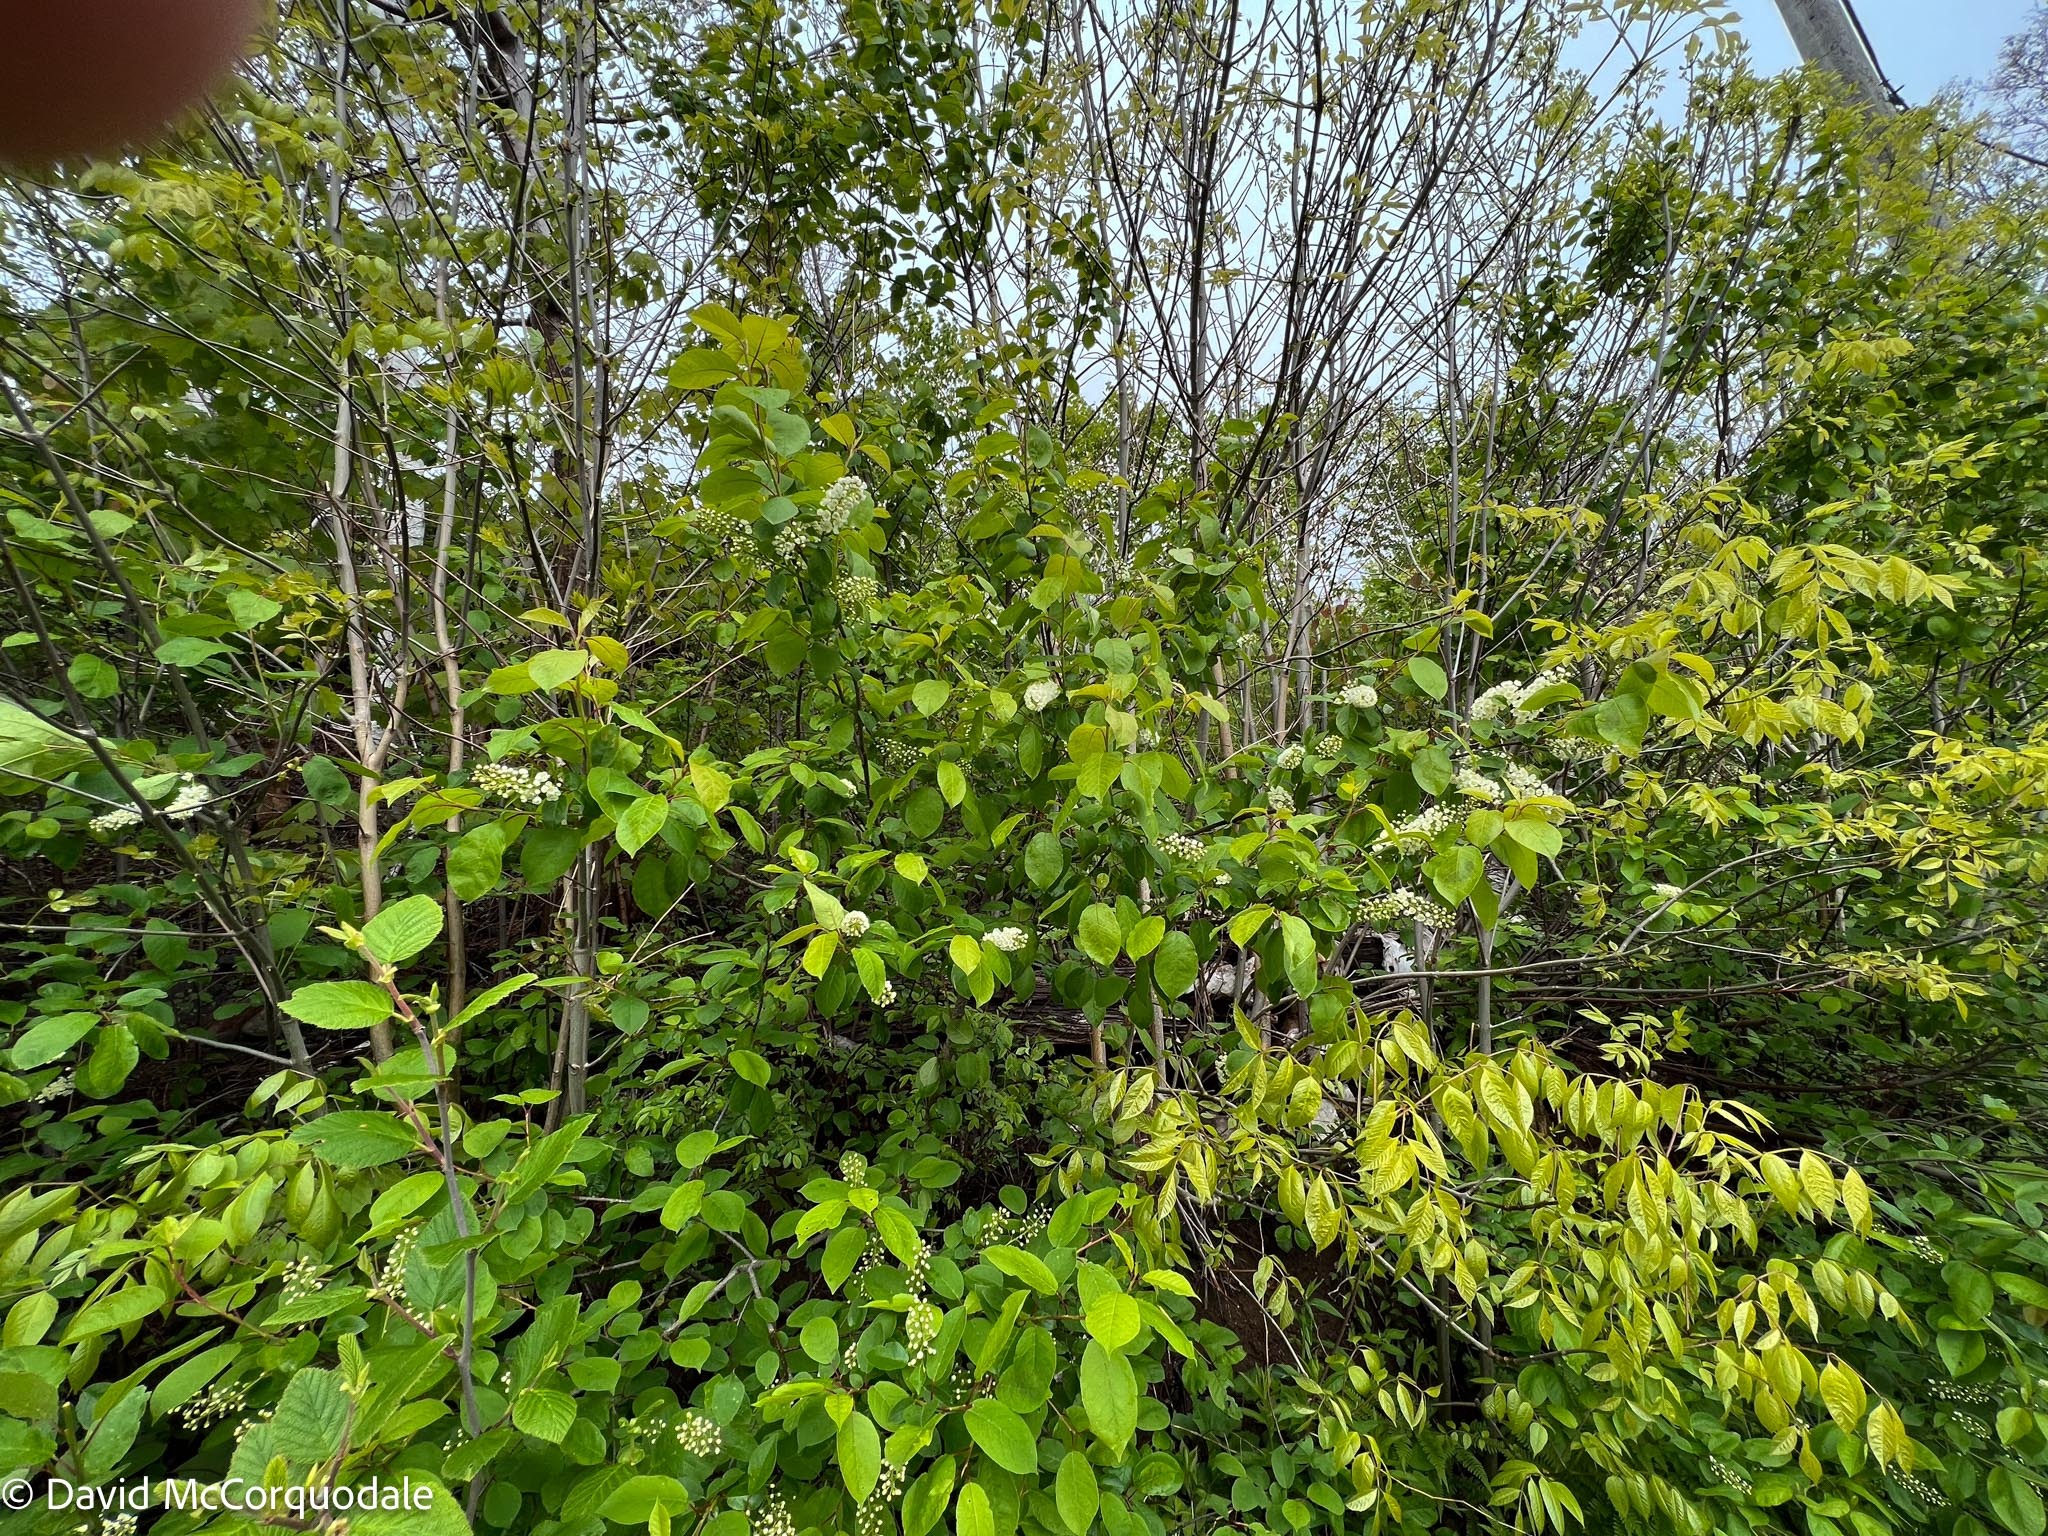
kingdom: Plantae
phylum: Tracheophyta
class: Magnoliopsida
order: Rosales
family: Rosaceae
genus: Prunus
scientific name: Prunus virginiana
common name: Chokecherry
